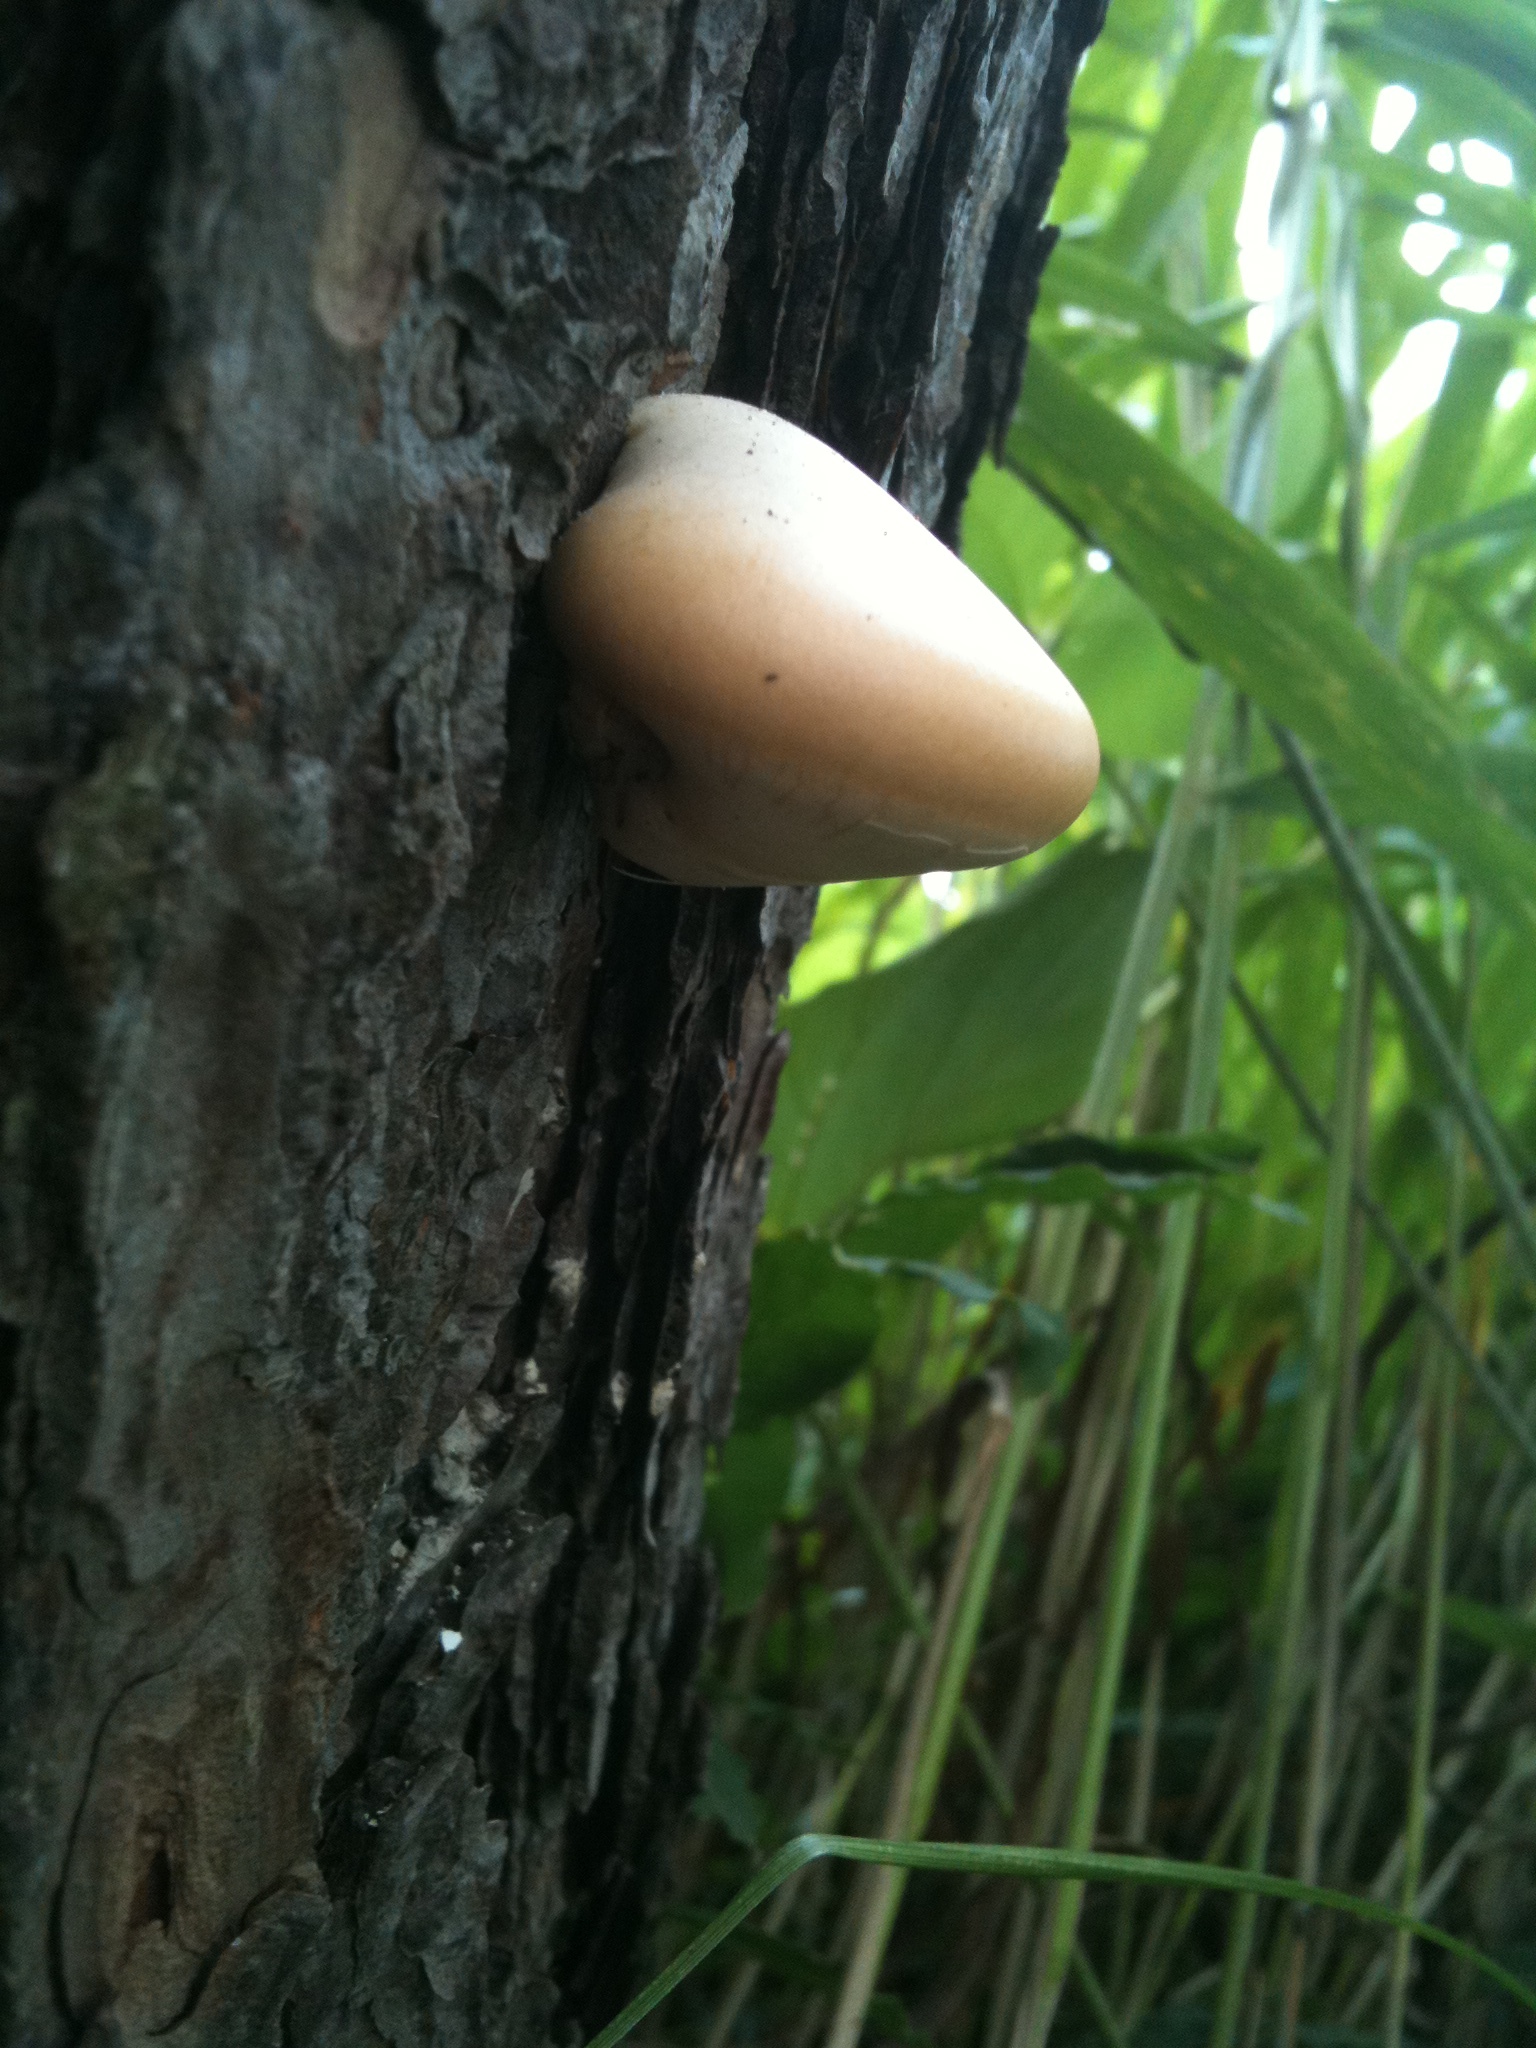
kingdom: Fungi
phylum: Basidiomycota
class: Agaricomycetes
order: Polyporales
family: Polyporaceae
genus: Cryptoporus
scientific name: Cryptoporus volvatus
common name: Veiled polypore
